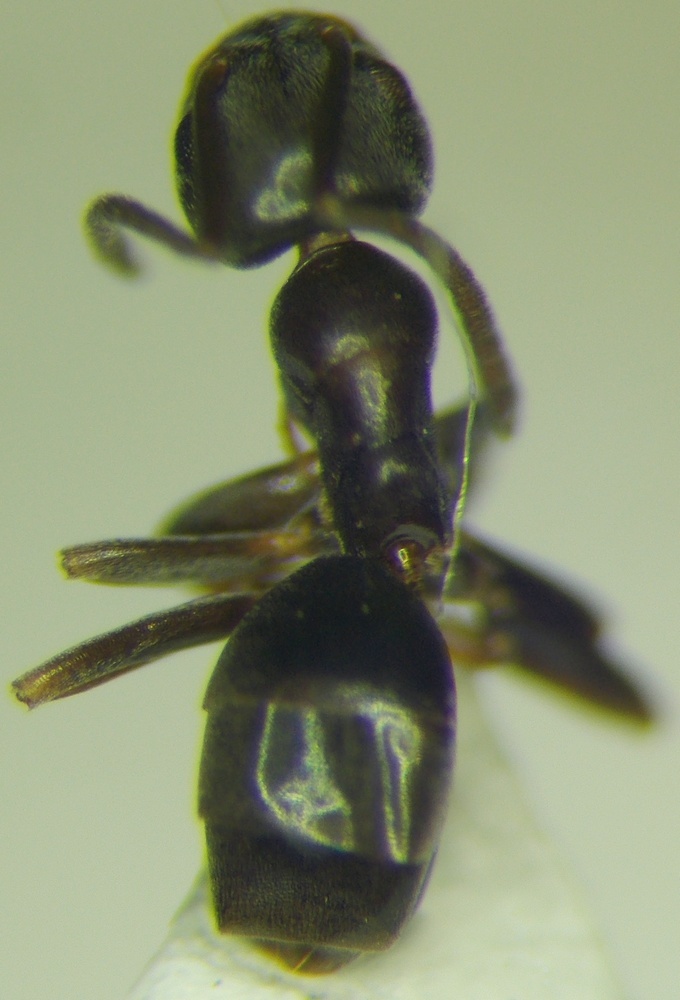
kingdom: Animalia
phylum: Arthropoda
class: Insecta
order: Hymenoptera
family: Formicidae
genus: Tapinoma
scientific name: Tapinoma sessile
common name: Odorous house ant
